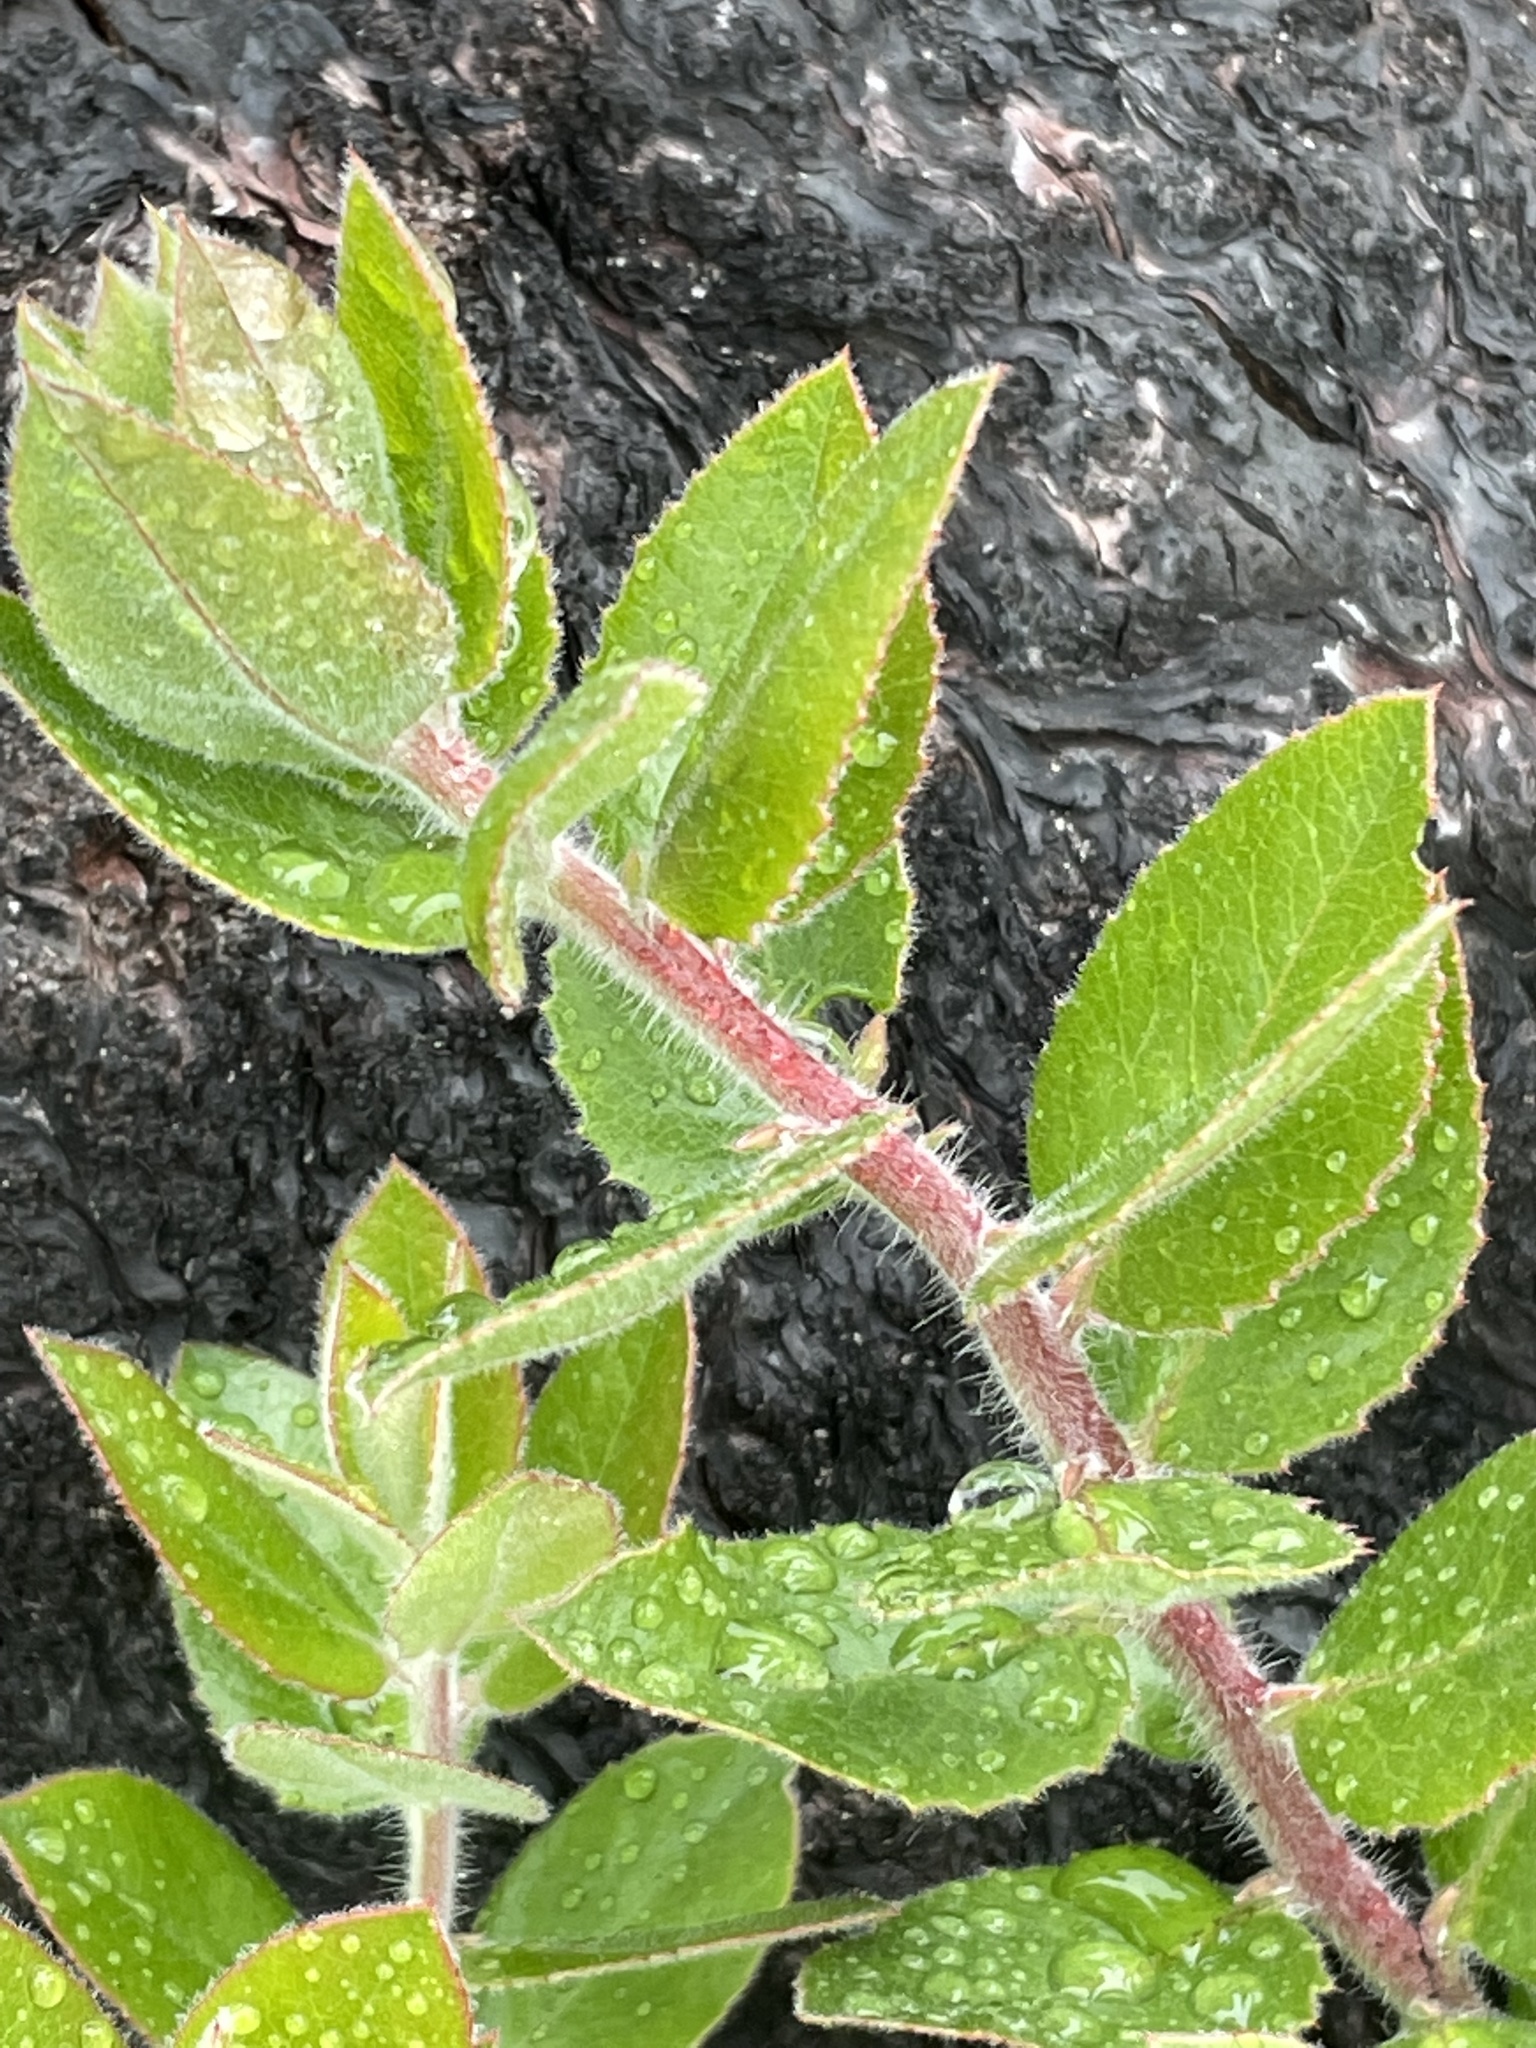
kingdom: Plantae
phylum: Tracheophyta
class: Magnoliopsida
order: Ericales
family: Ericaceae
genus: Arctostaphylos
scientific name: Arctostaphylos crustacea
